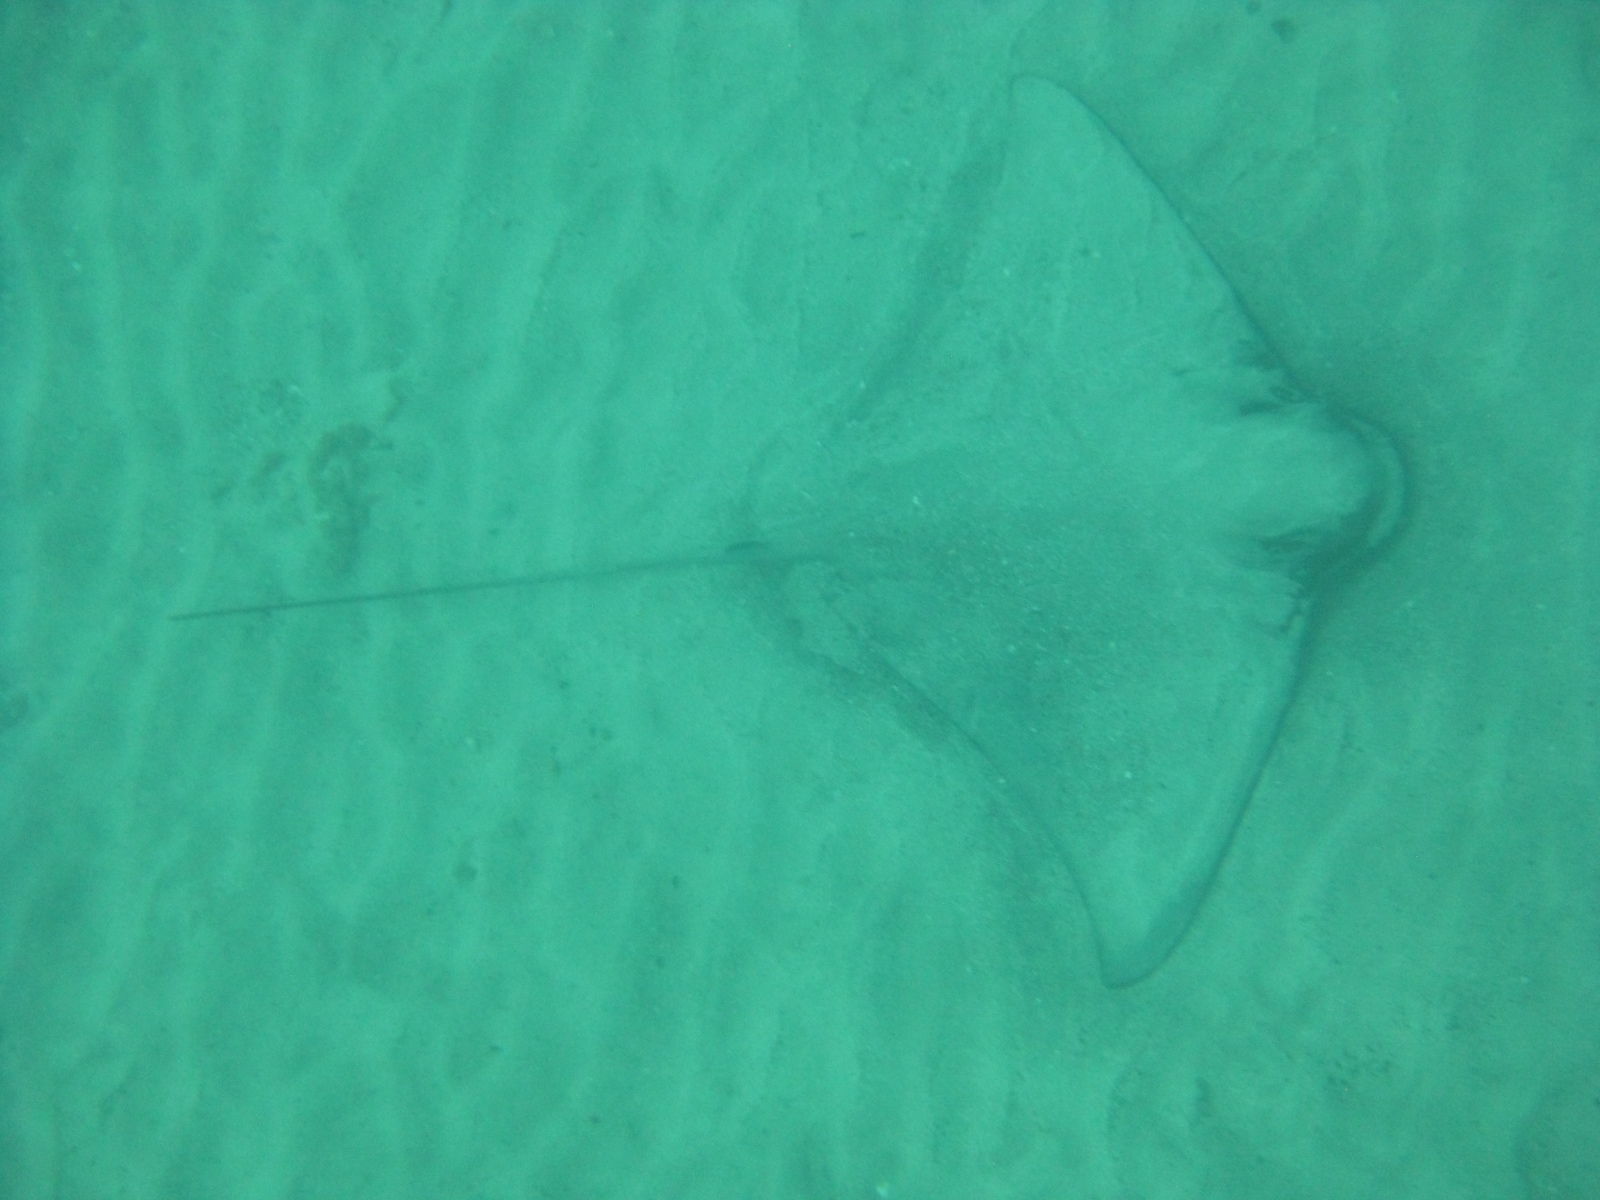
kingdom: Animalia
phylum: Chordata
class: Elasmobranchii
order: Myliobatiformes
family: Myliobatidae
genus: Myliobatis
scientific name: Myliobatis tenuicaudatus
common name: Eagle ray
